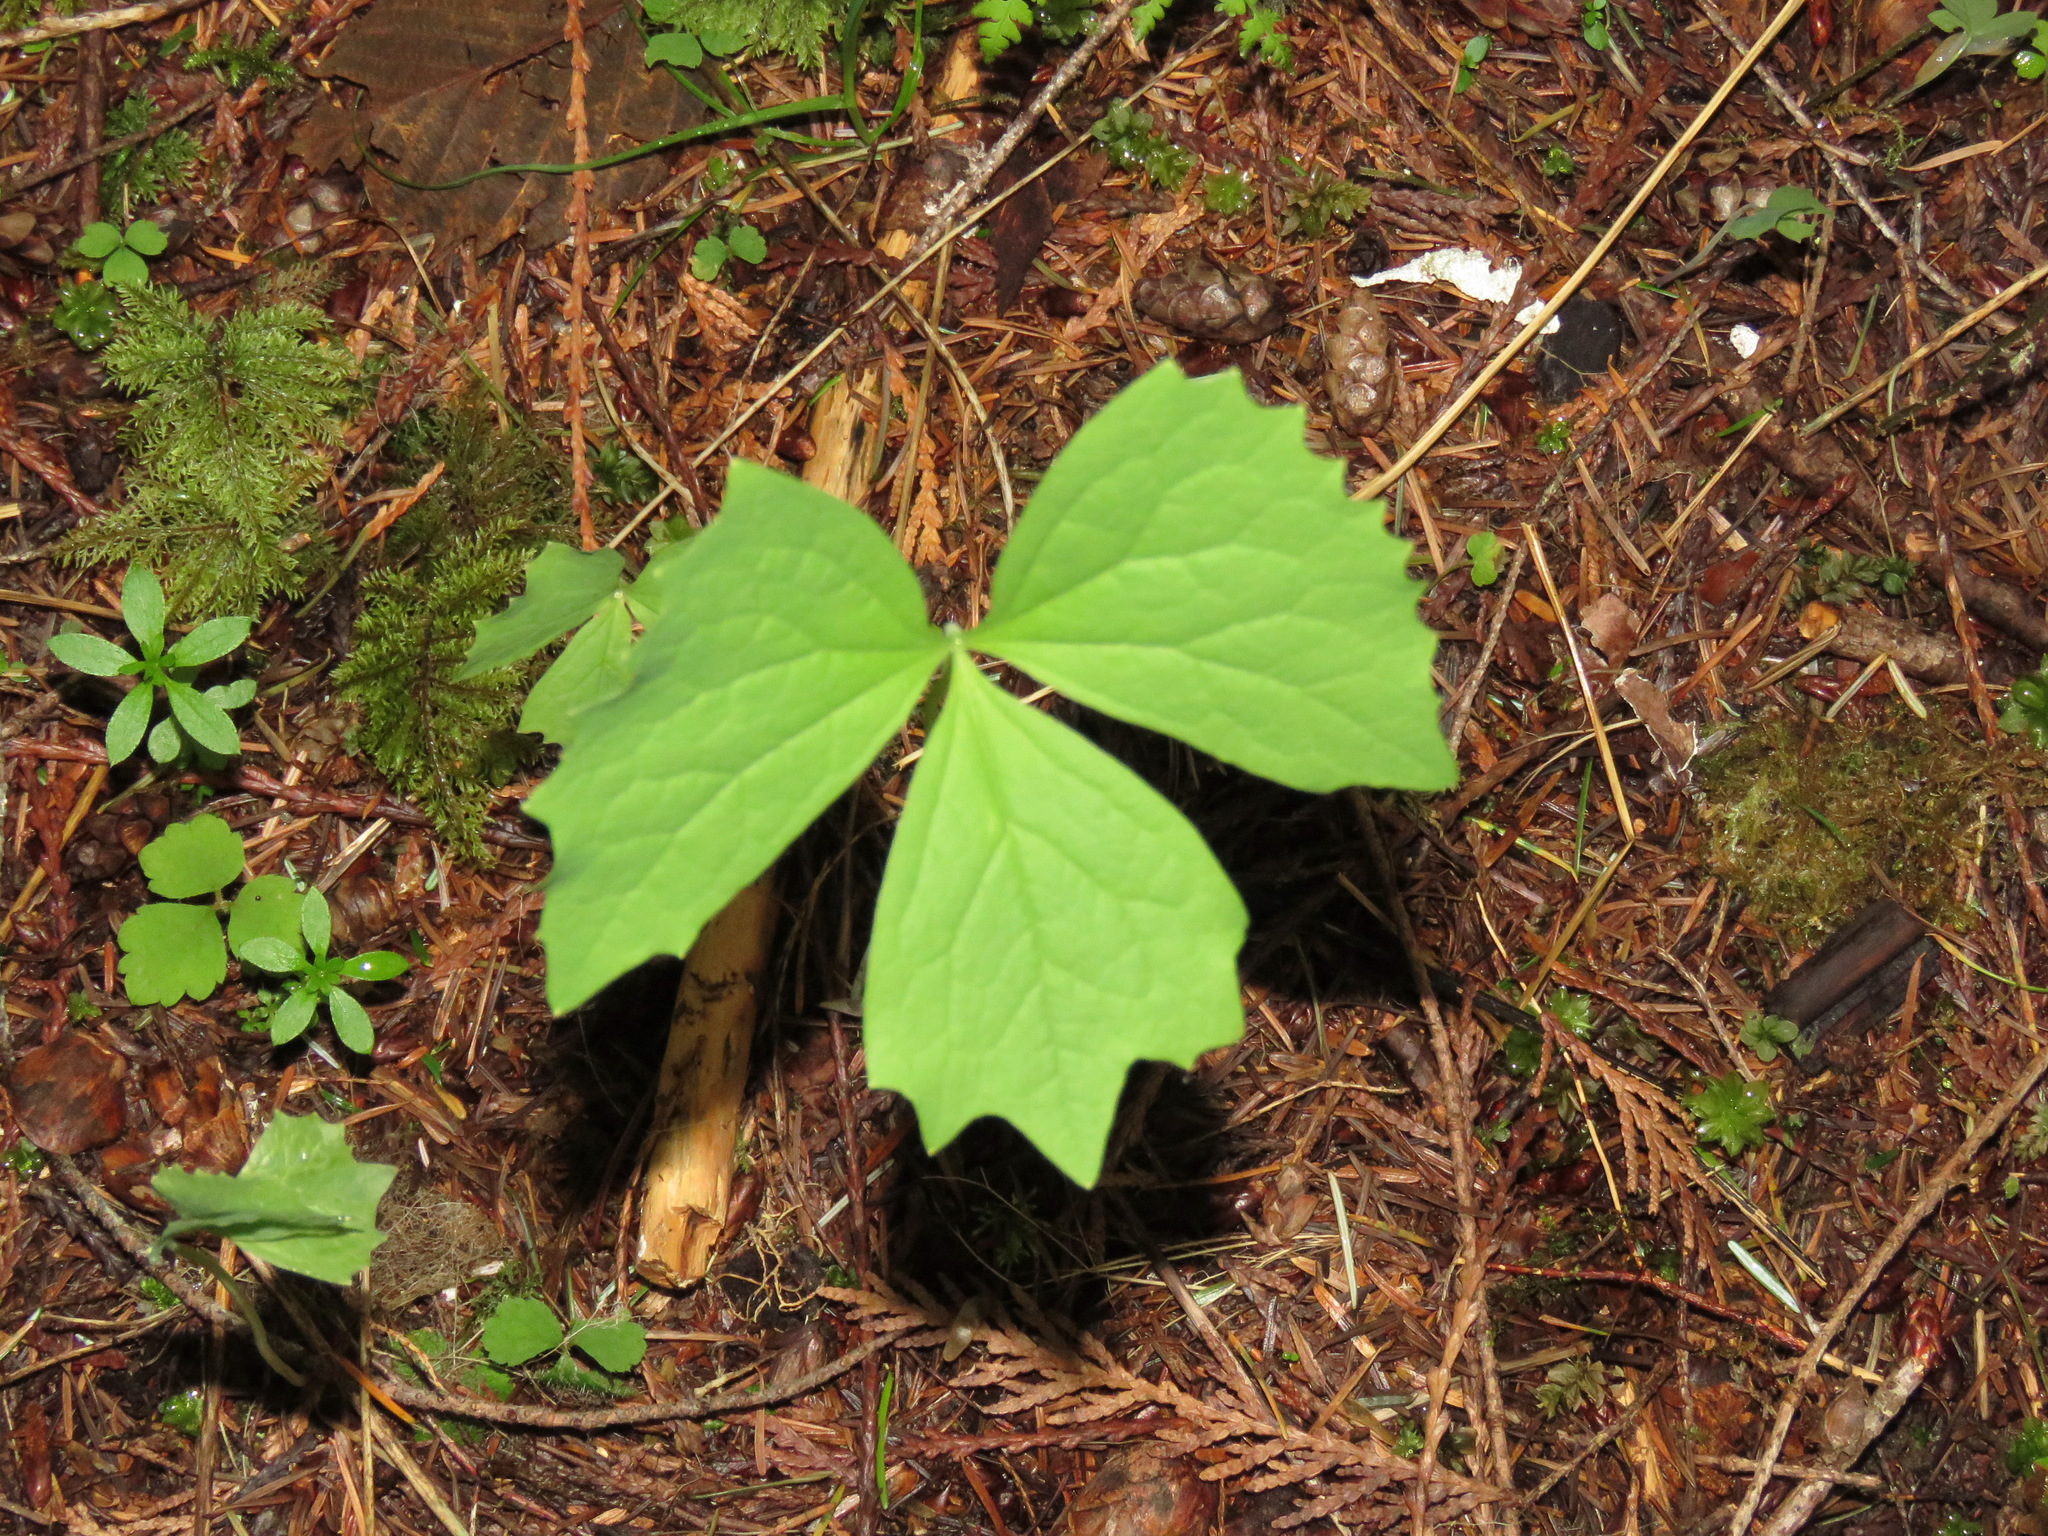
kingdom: Plantae
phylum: Tracheophyta
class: Magnoliopsida
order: Ranunculales
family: Berberidaceae
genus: Achlys
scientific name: Achlys triphylla
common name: Vanilla-leaf
